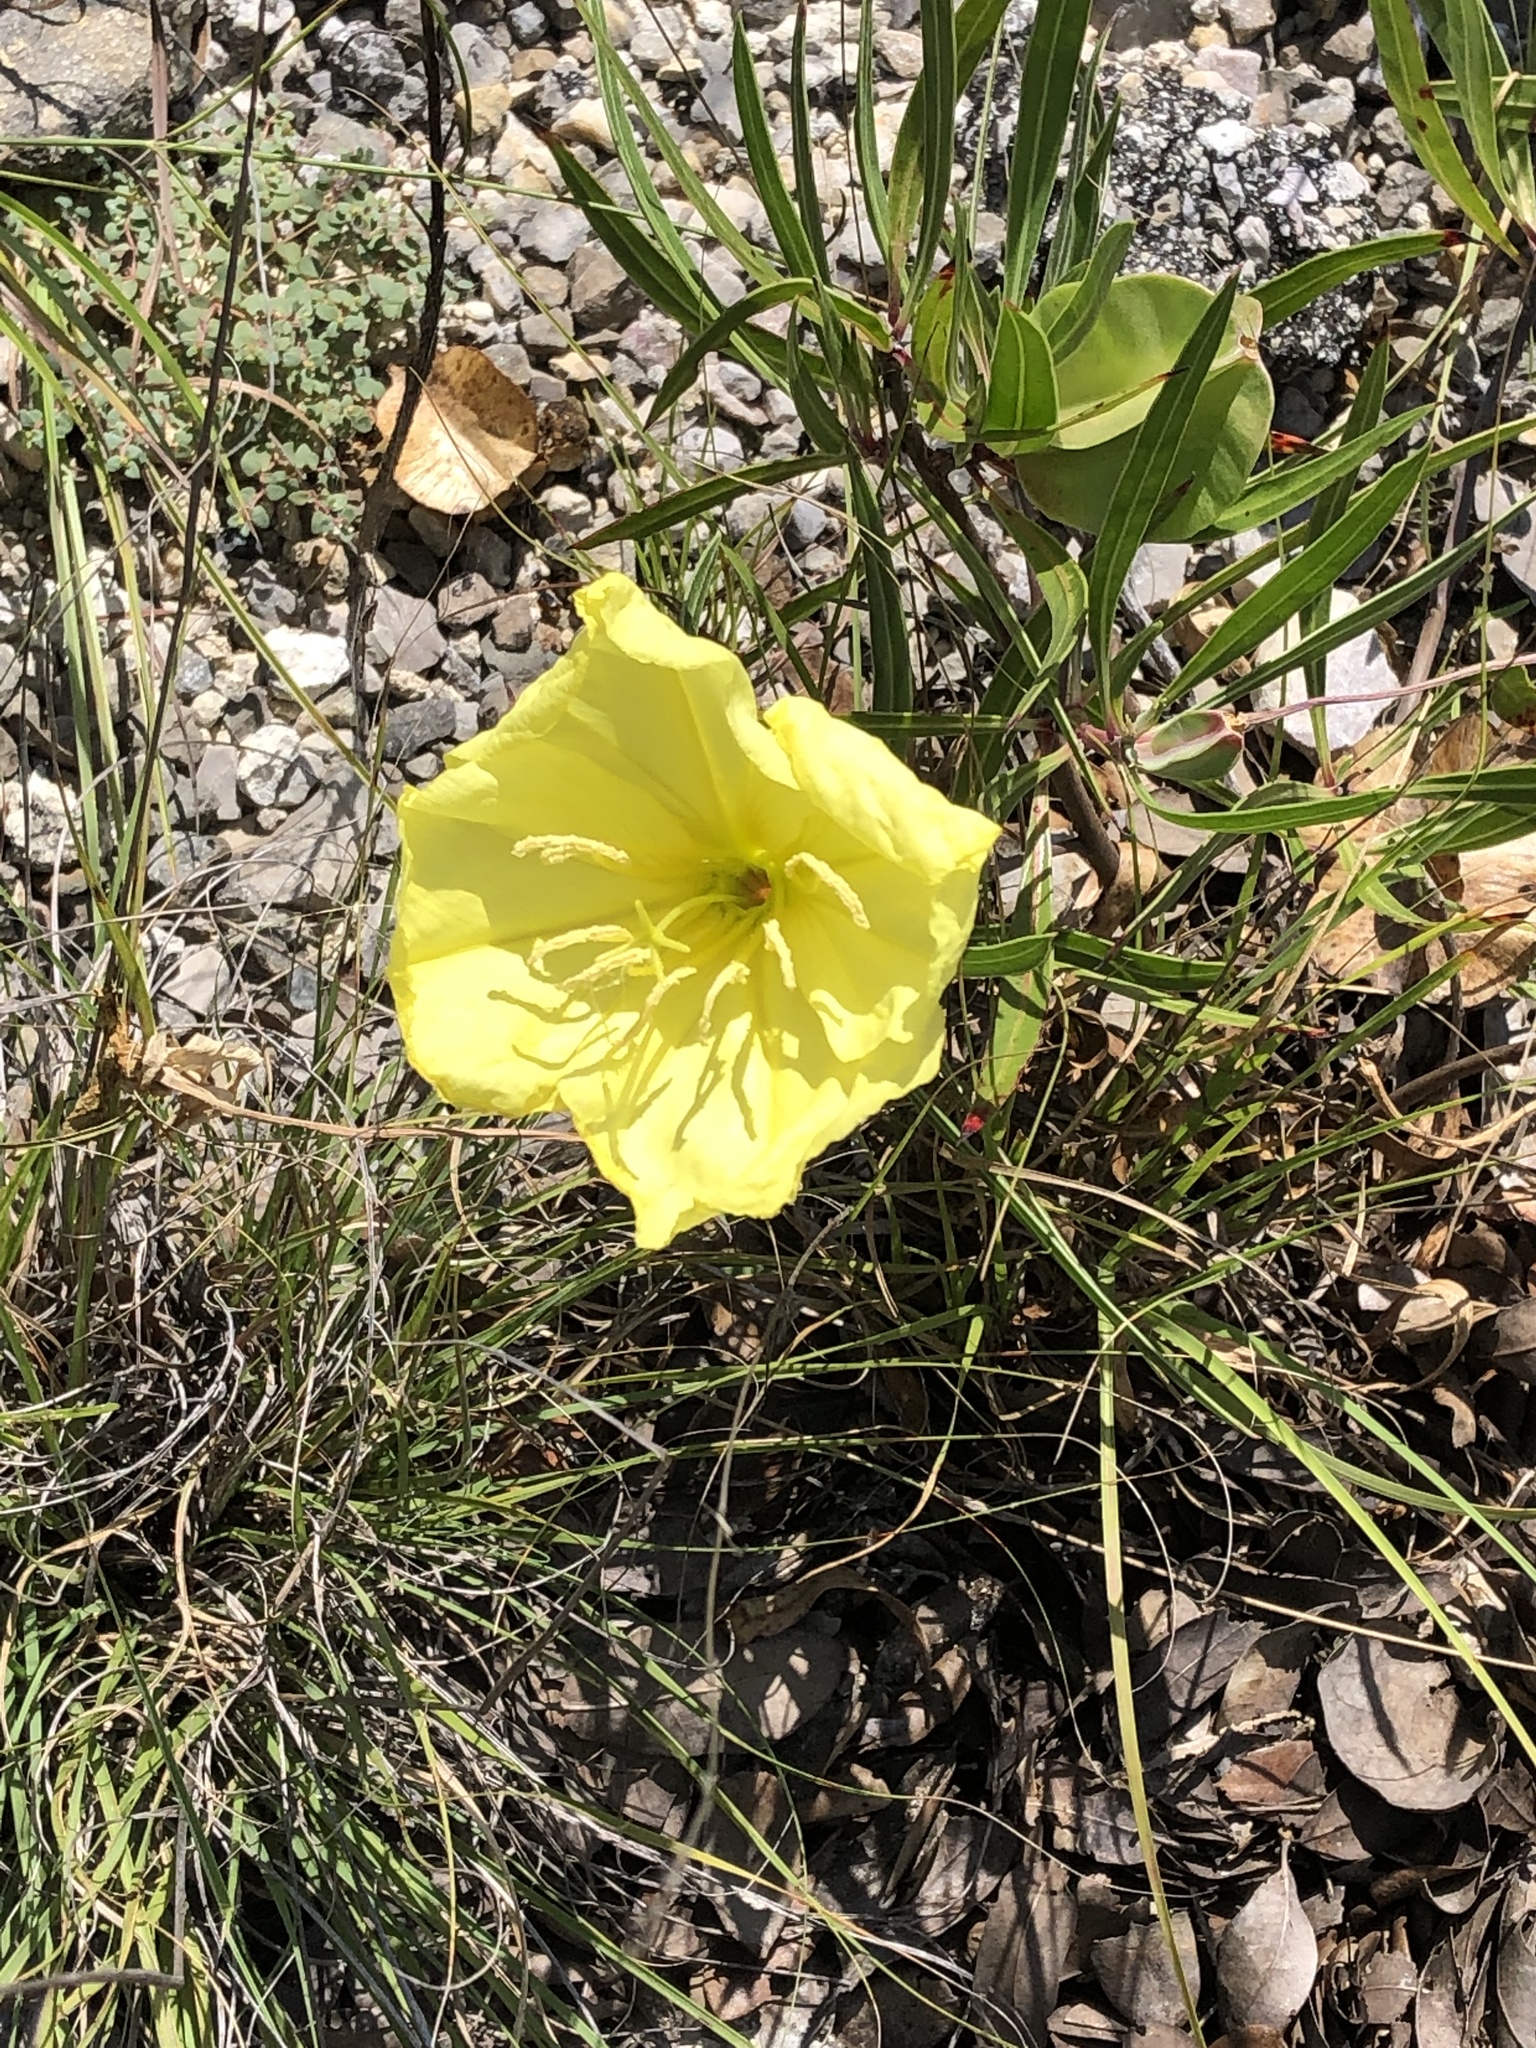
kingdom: Plantae
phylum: Tracheophyta
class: Magnoliopsida
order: Myrtales
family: Onagraceae
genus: Oenothera
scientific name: Oenothera macrocarpa
